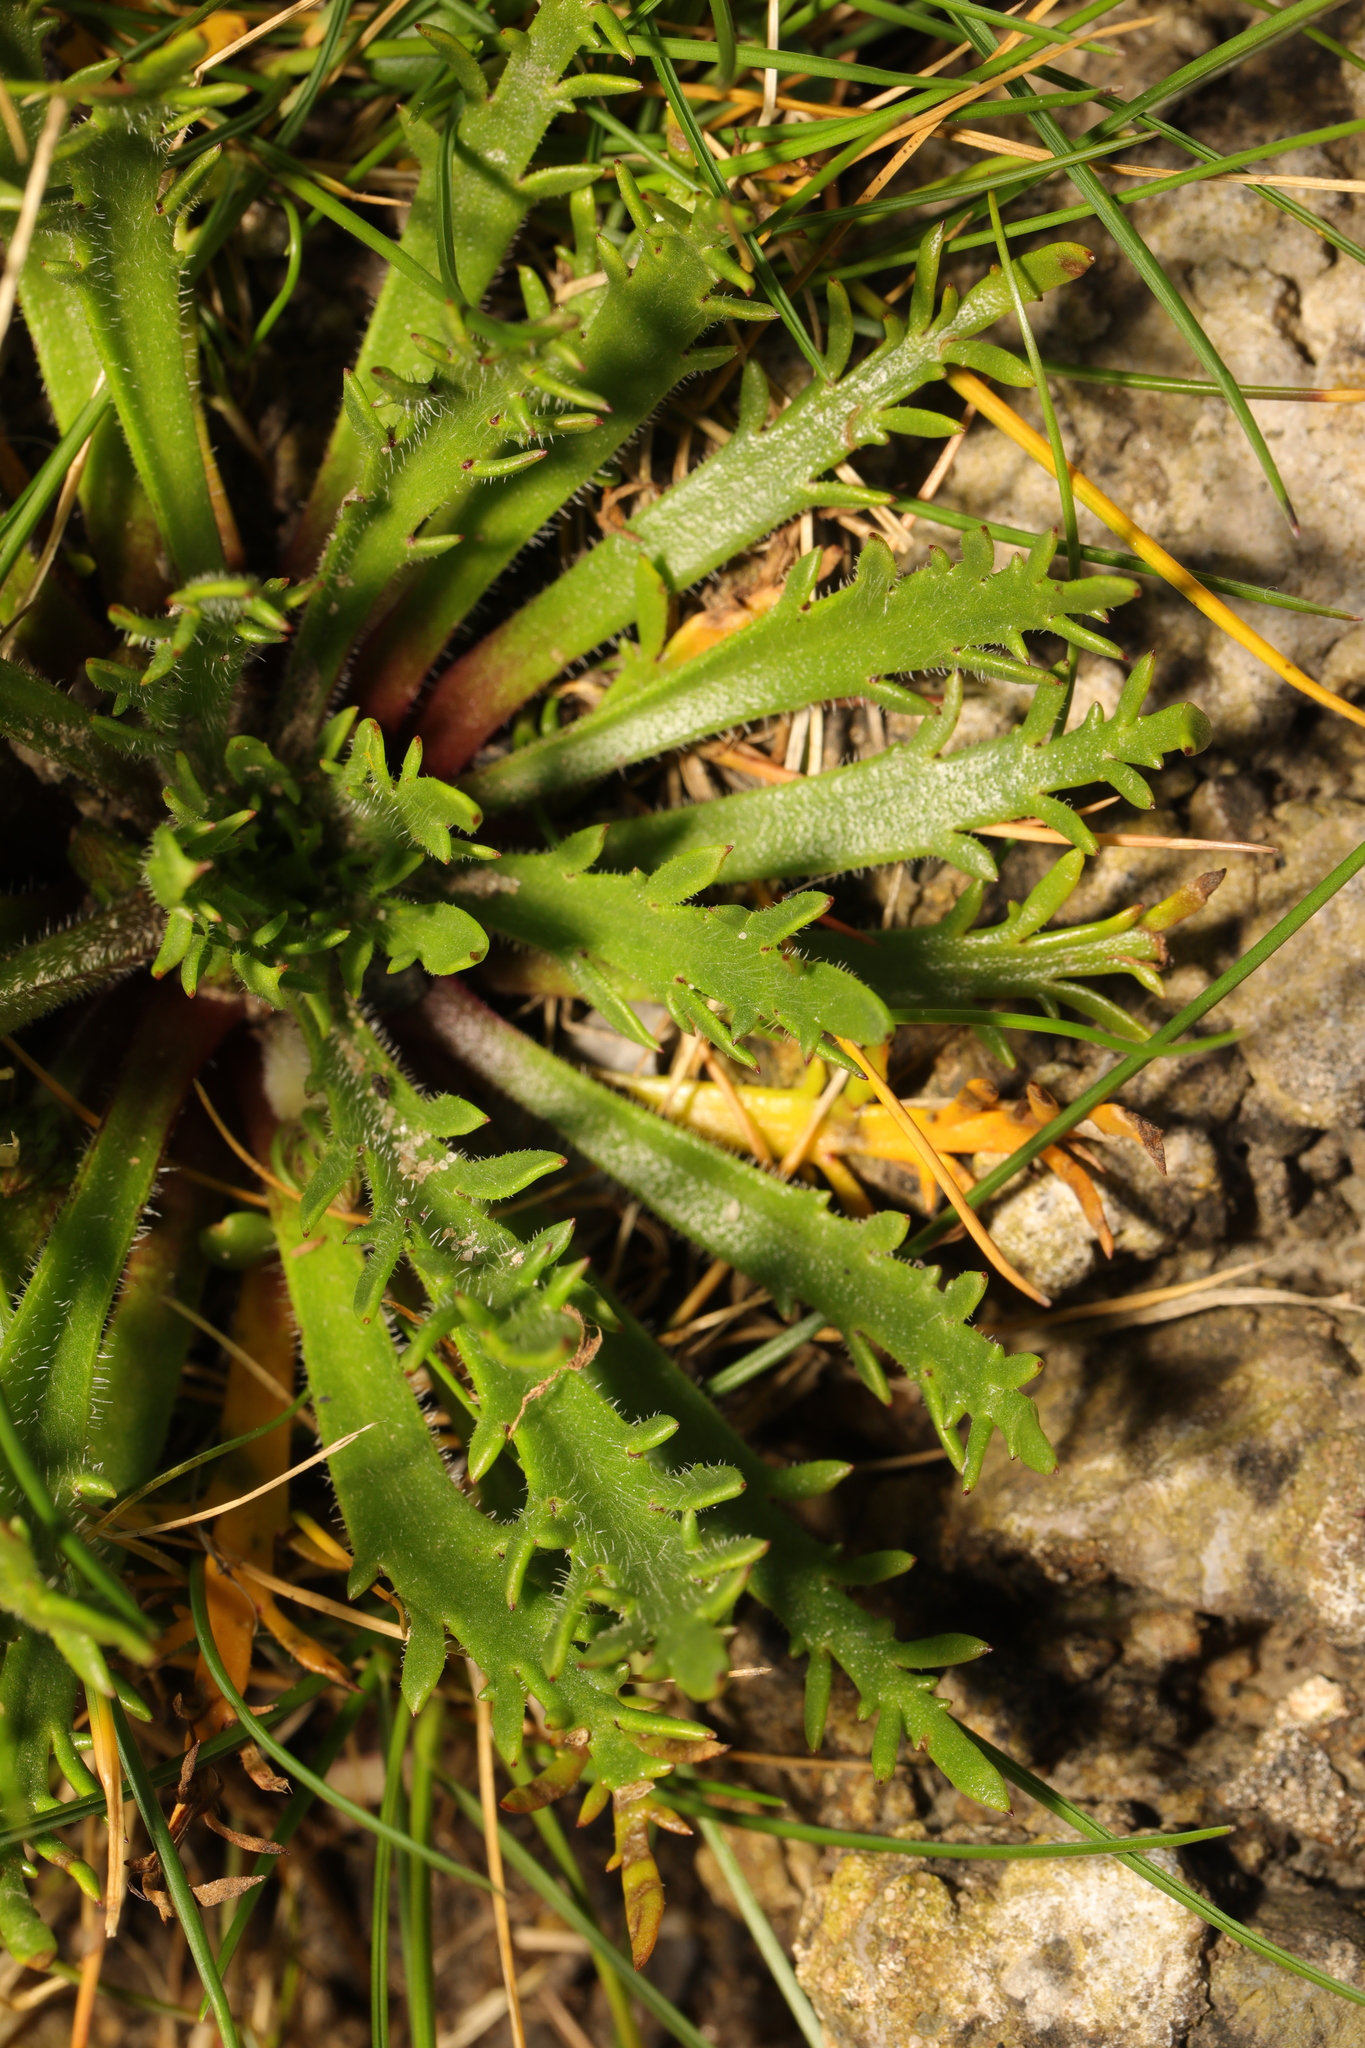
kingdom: Plantae
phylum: Tracheophyta
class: Magnoliopsida
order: Lamiales
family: Plantaginaceae
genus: Plantago
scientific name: Plantago coronopus
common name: Buck's-horn plantain
